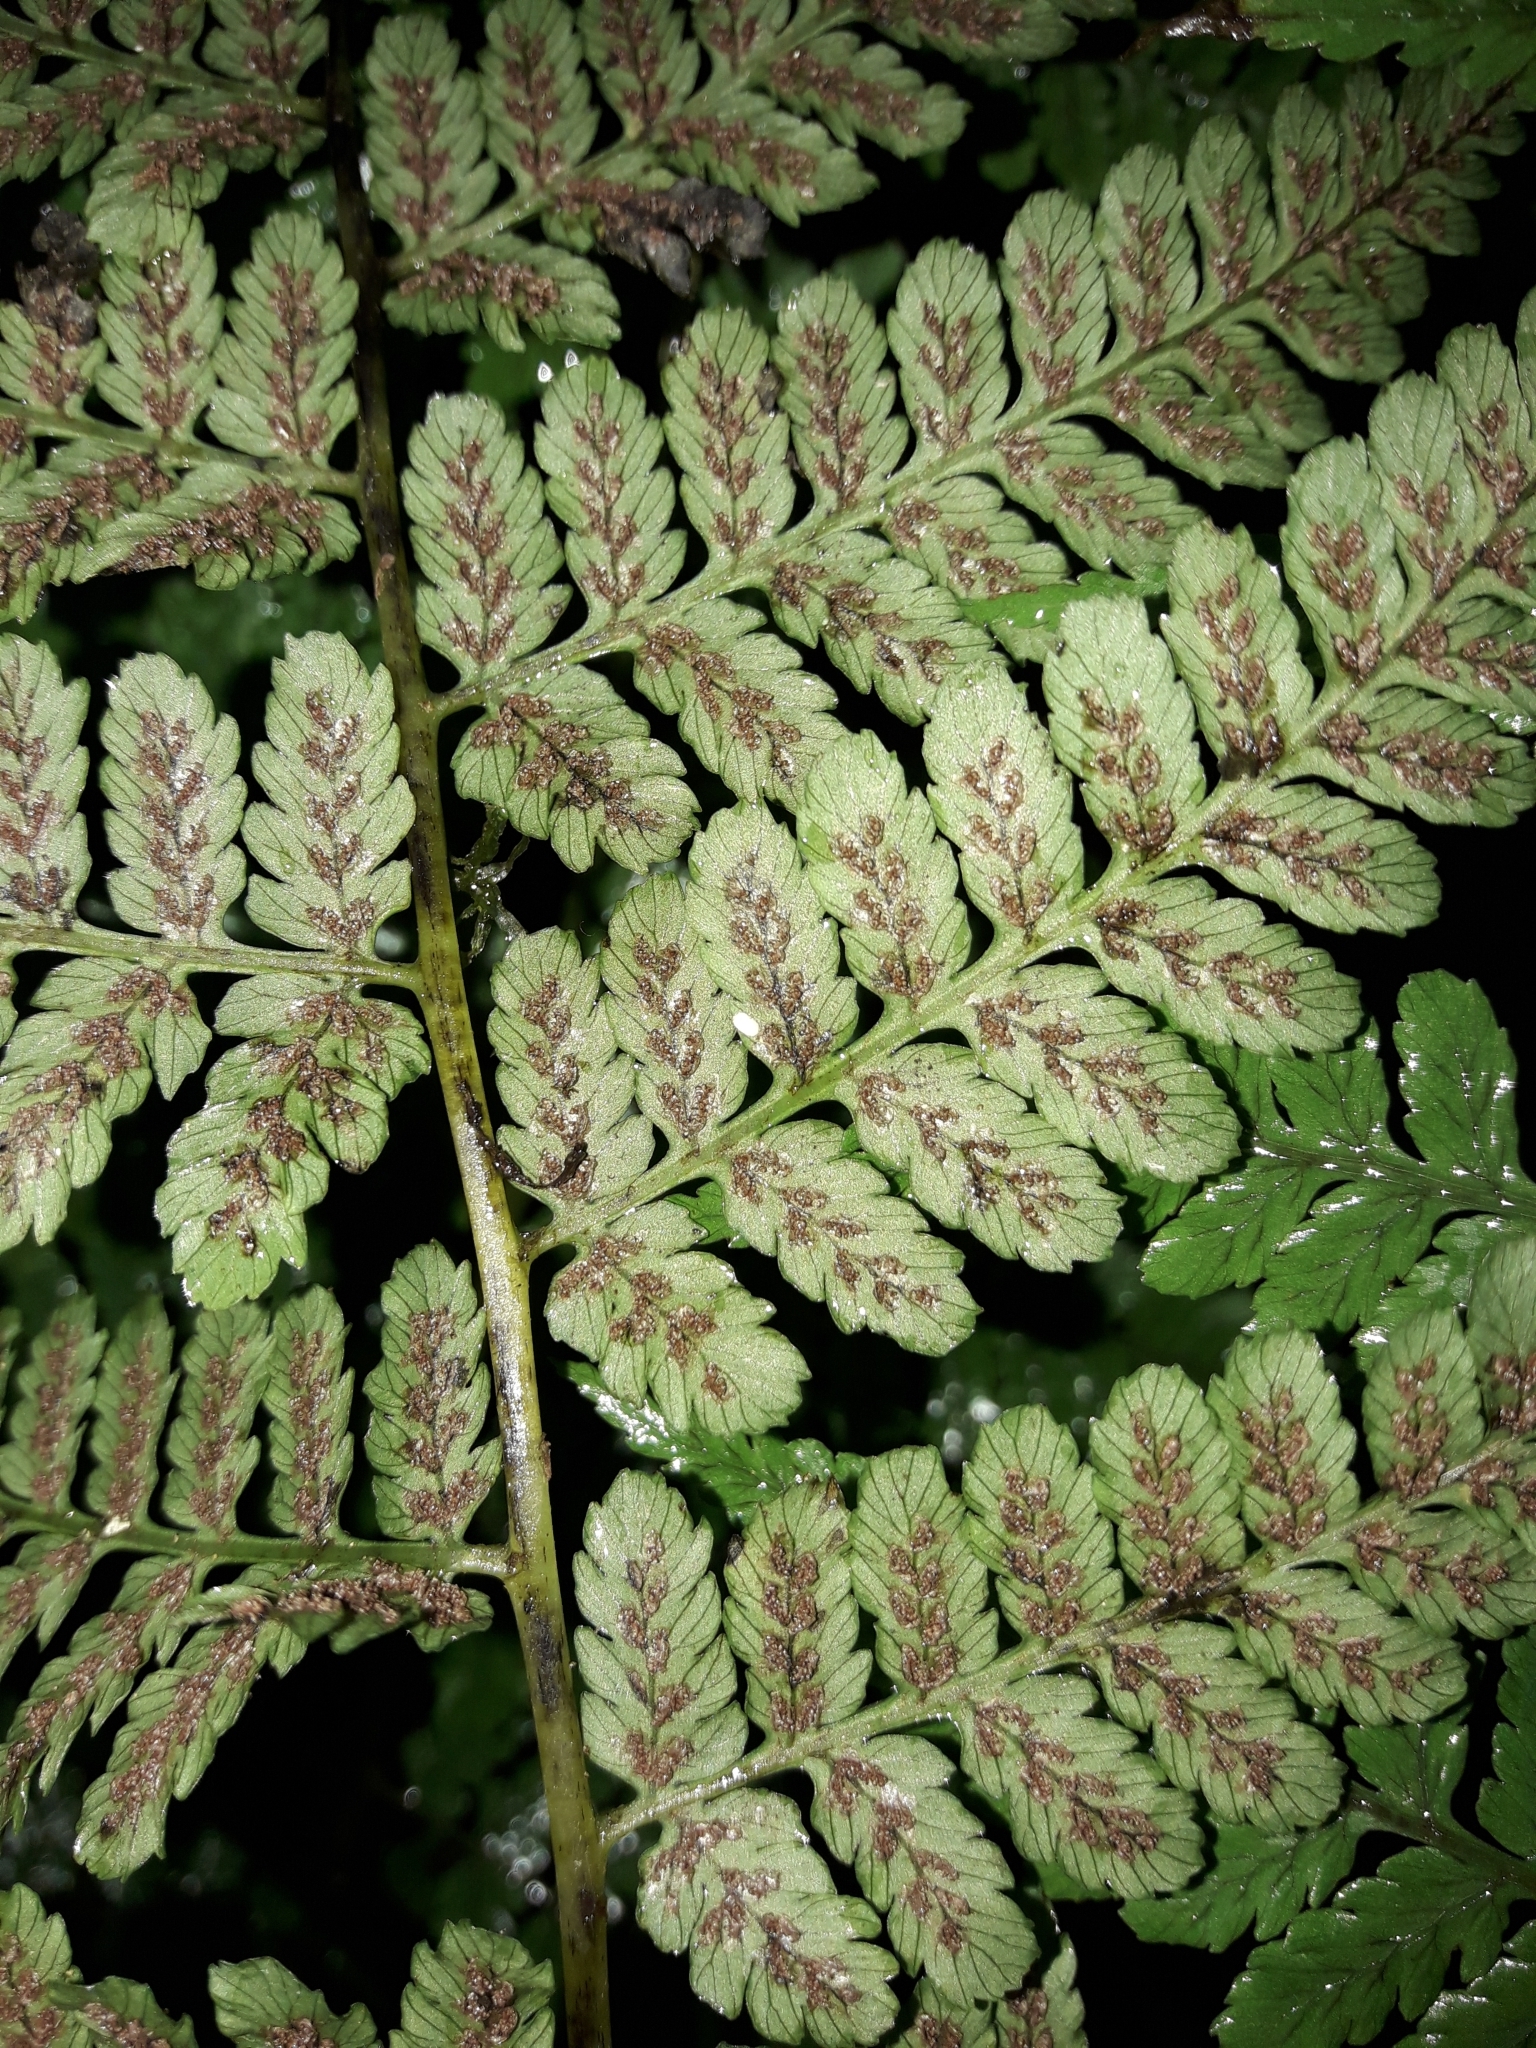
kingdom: Plantae
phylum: Tracheophyta
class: Polypodiopsida
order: Polypodiales
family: Athyriaceae
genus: Diplazium
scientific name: Diplazium australe
